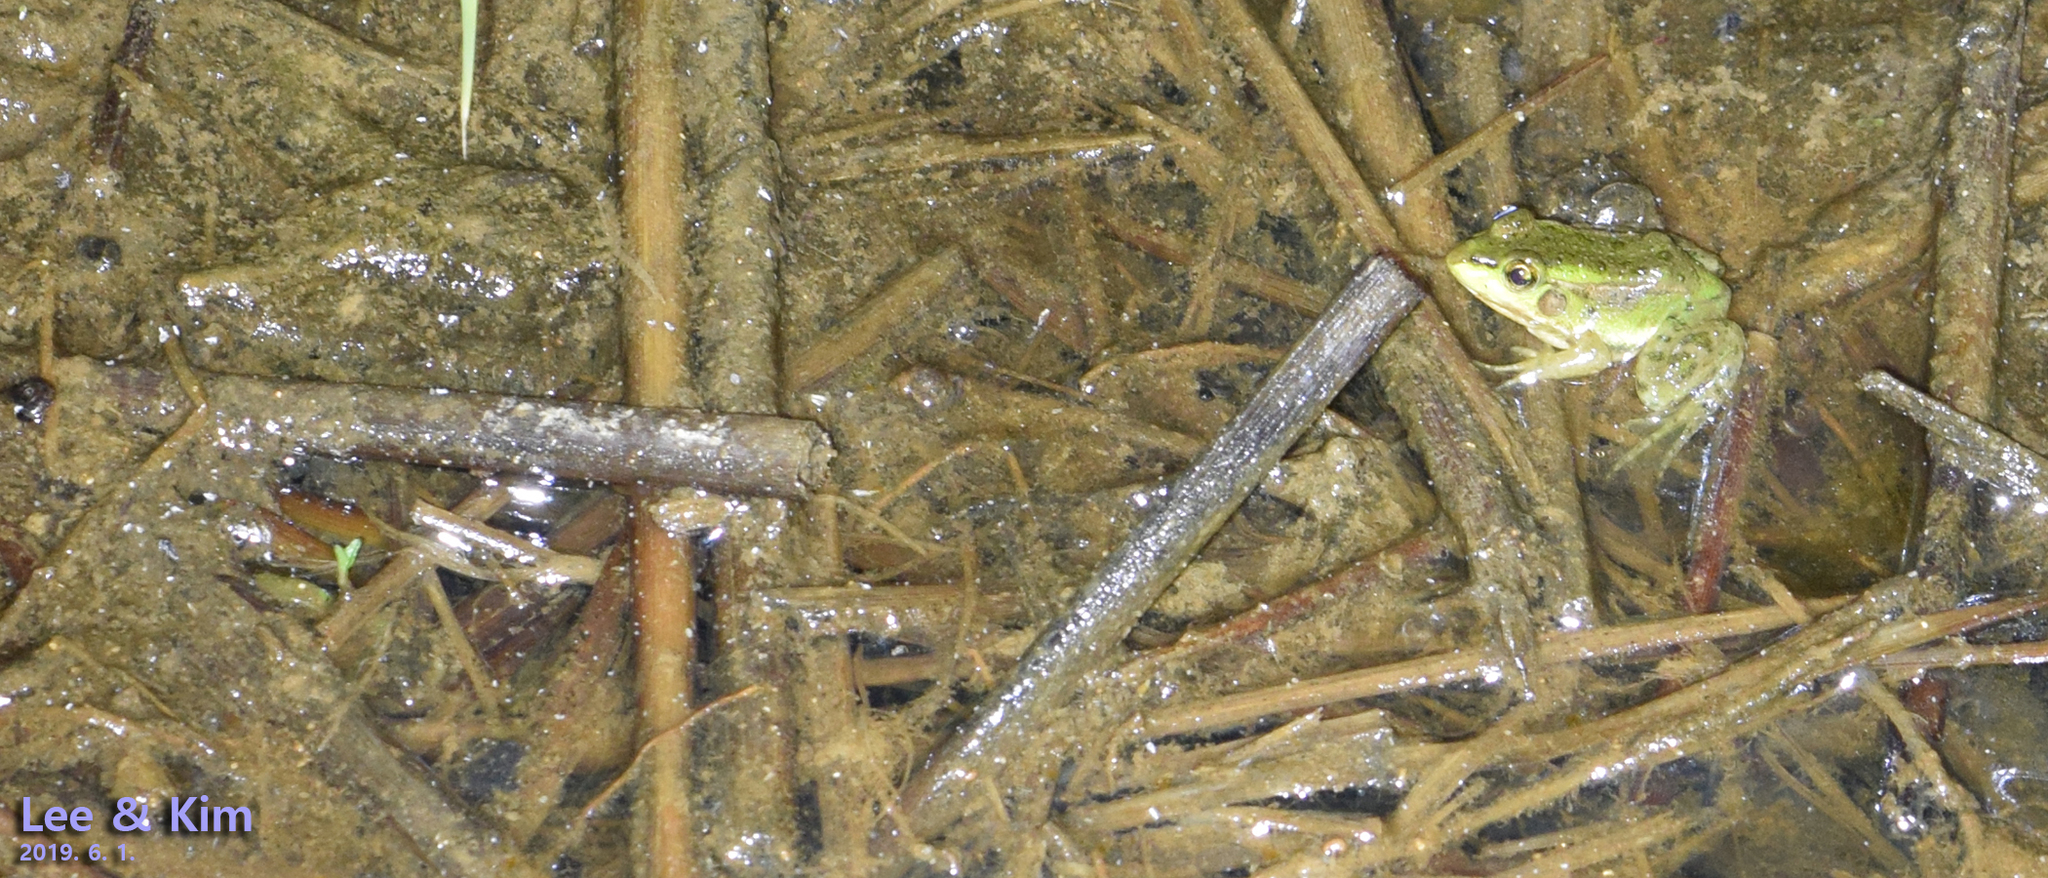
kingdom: Animalia
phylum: Chordata
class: Amphibia
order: Anura
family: Ranidae
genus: Pelophylax
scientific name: Pelophylax chosenicus
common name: Gold-spotted pond frog
